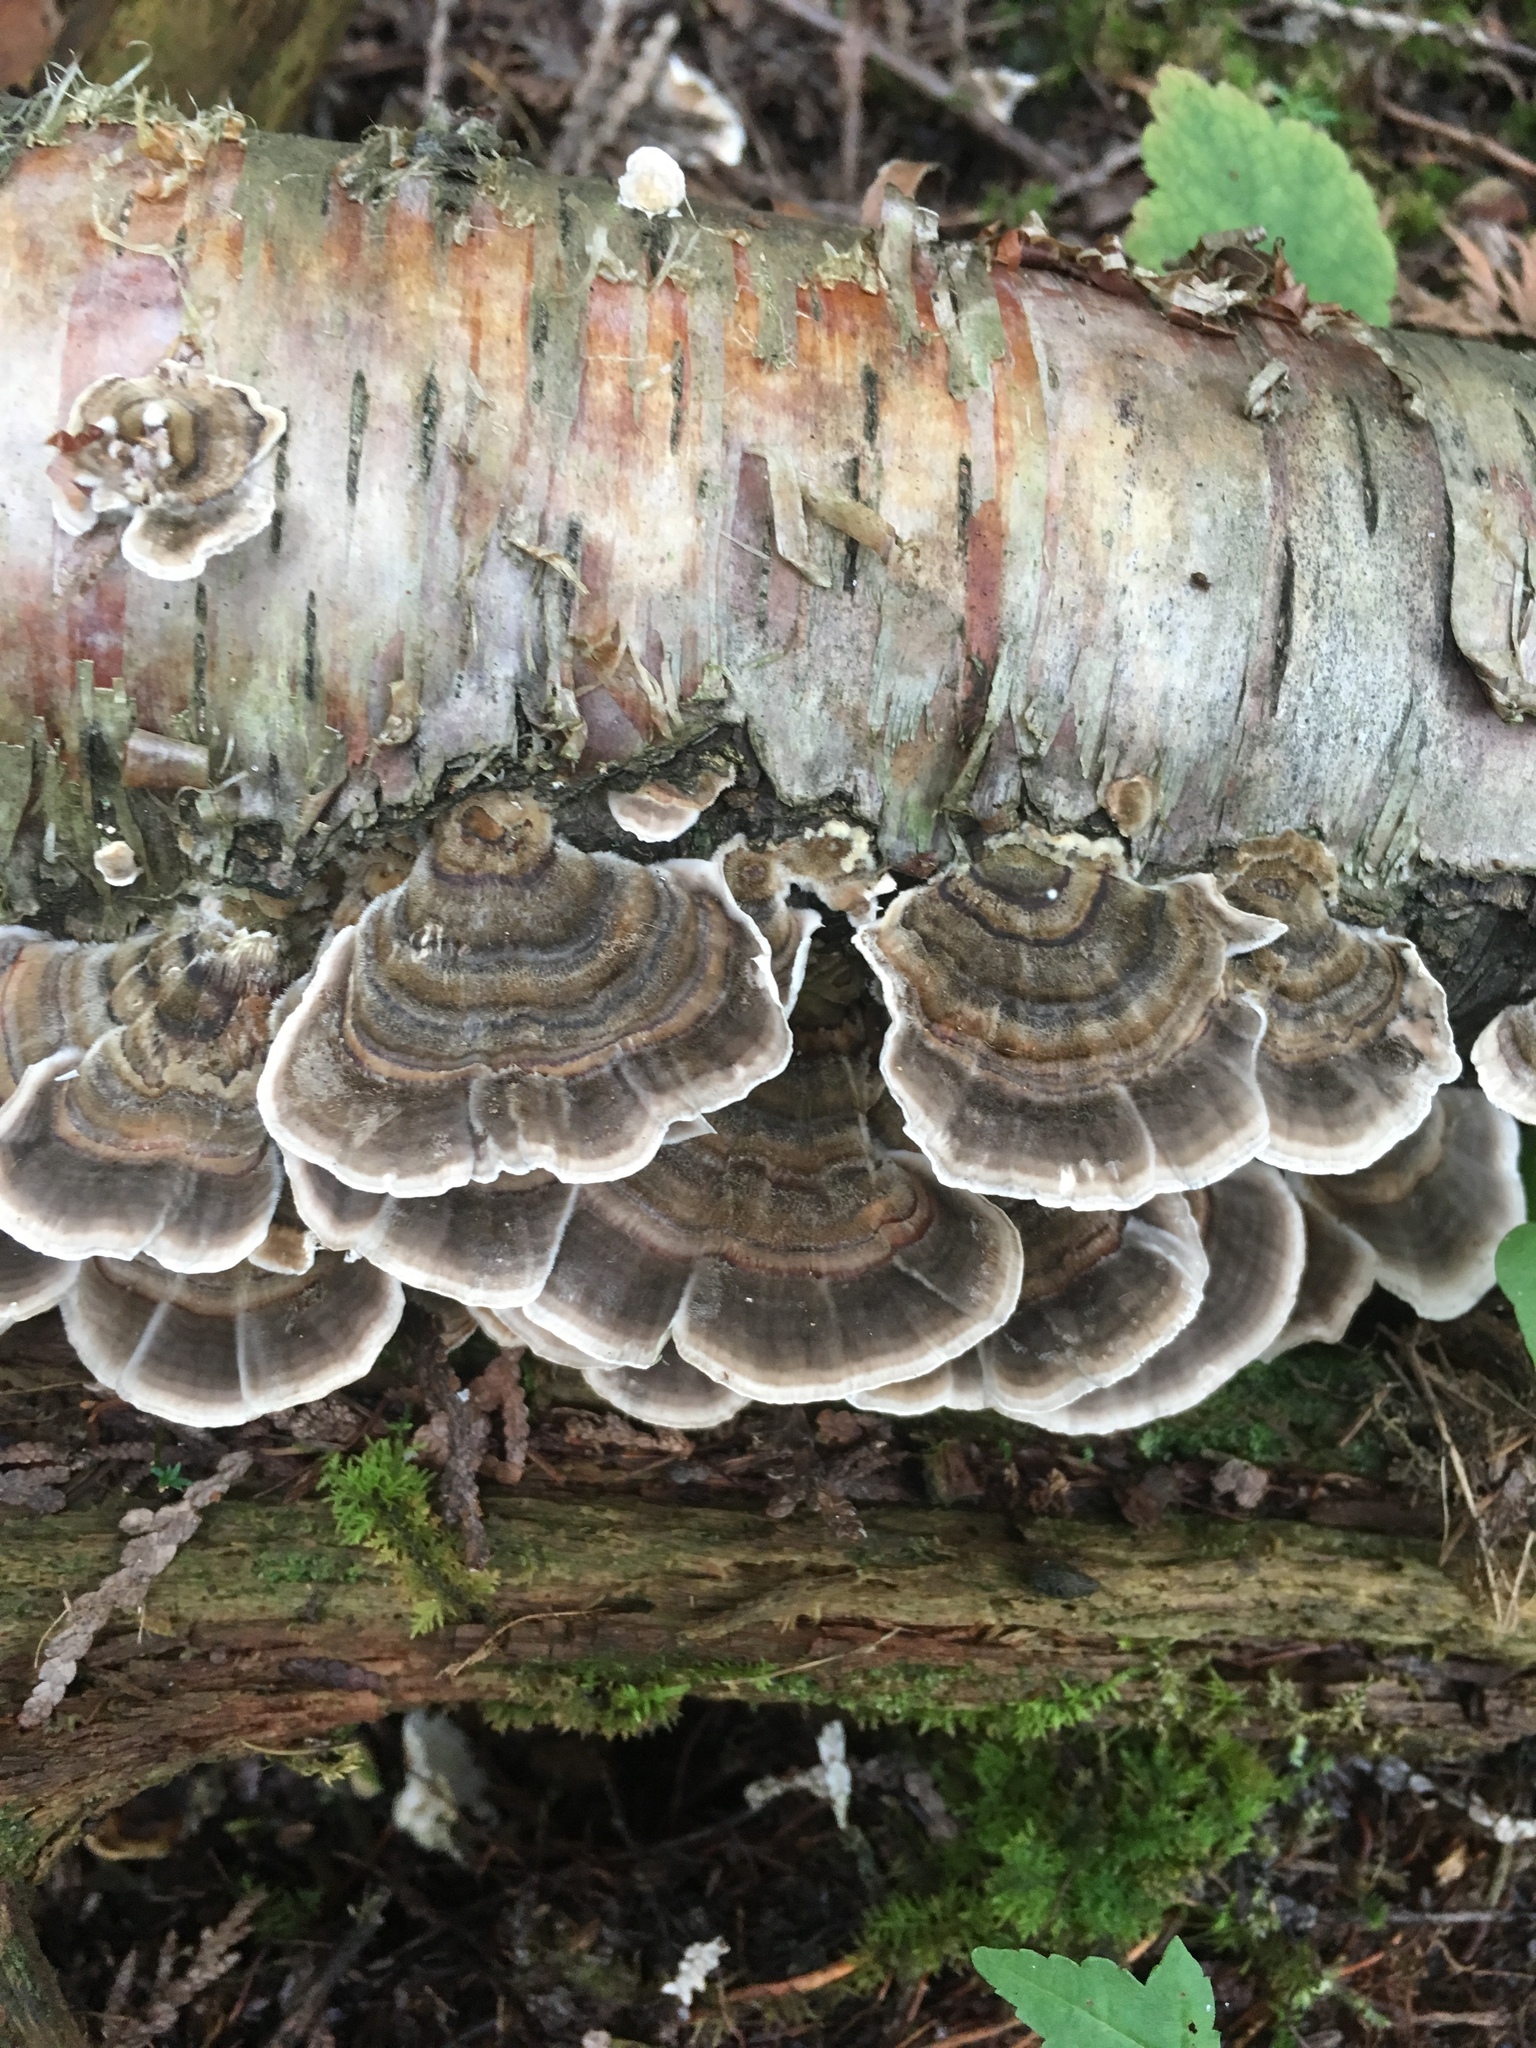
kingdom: Fungi
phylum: Basidiomycota
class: Agaricomycetes
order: Polyporales
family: Polyporaceae
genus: Trametes
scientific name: Trametes versicolor
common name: Turkeytail
